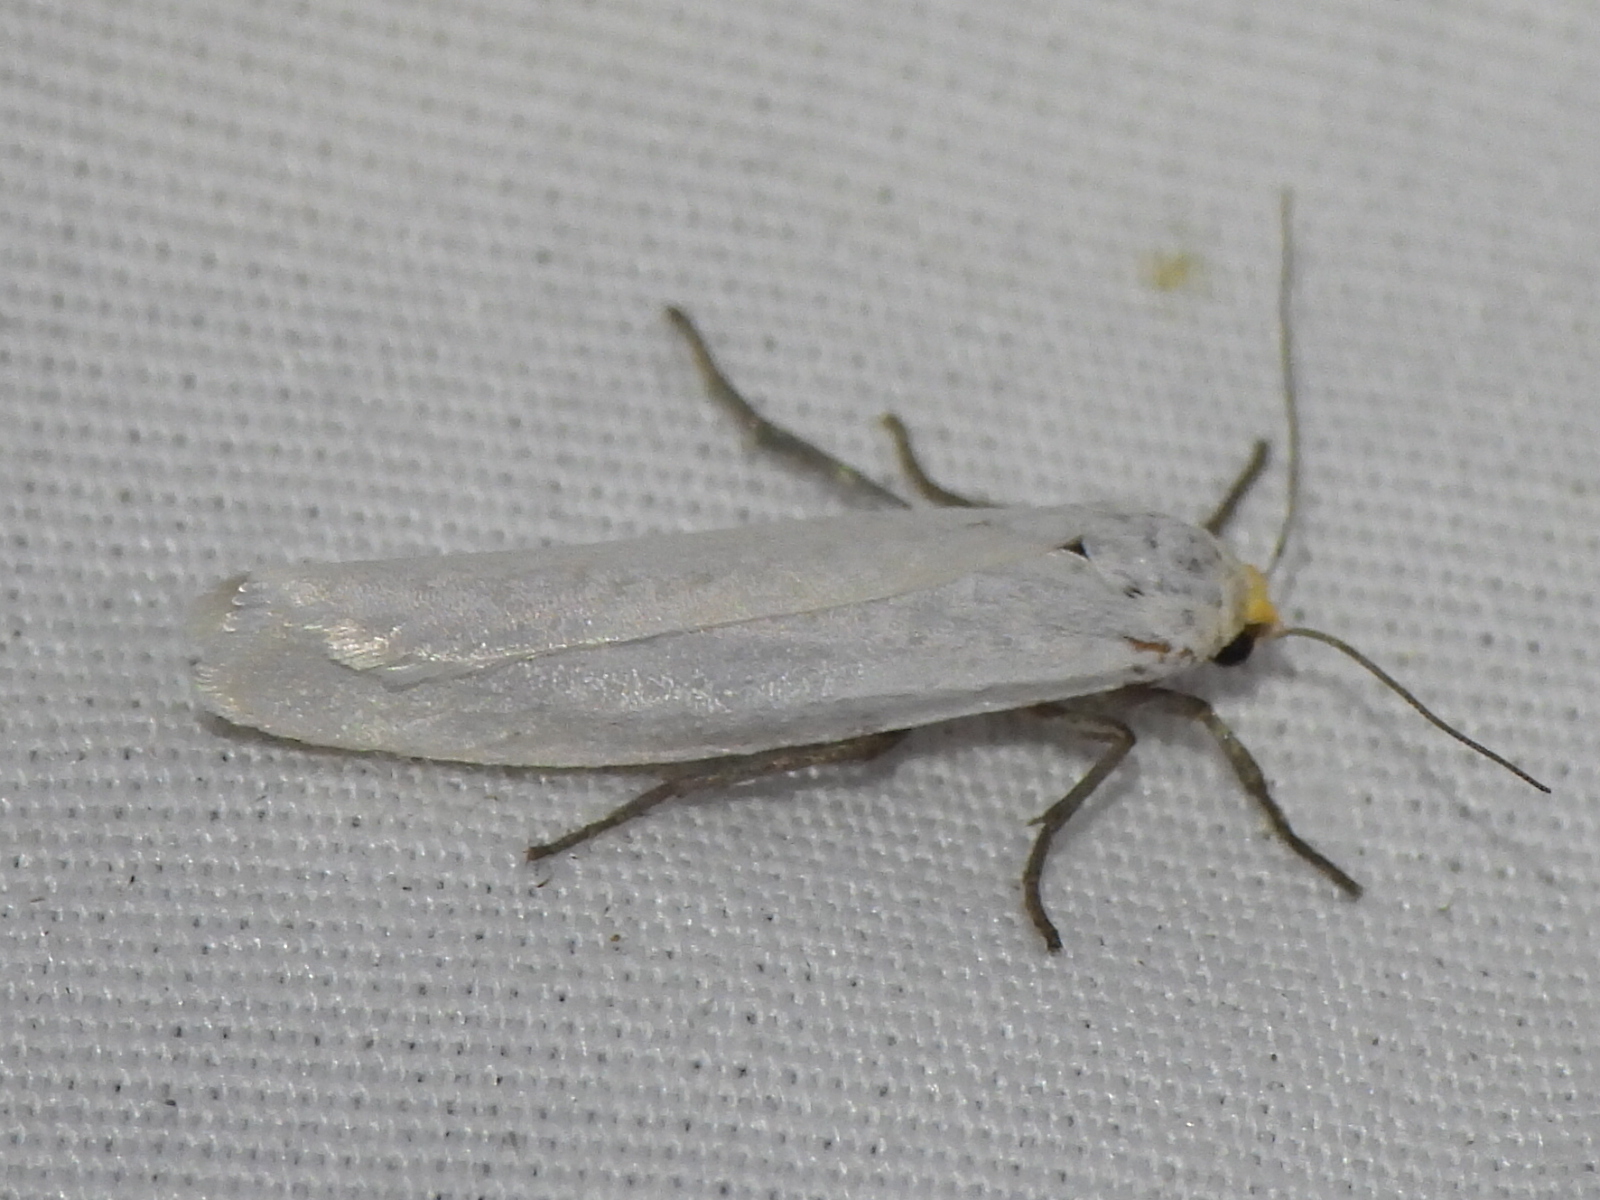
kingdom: Animalia
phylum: Arthropoda
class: Insecta
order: Lepidoptera
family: Erebidae
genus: Crambidia
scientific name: Crambidia cephalica
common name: Yellow-headed lichen moth
